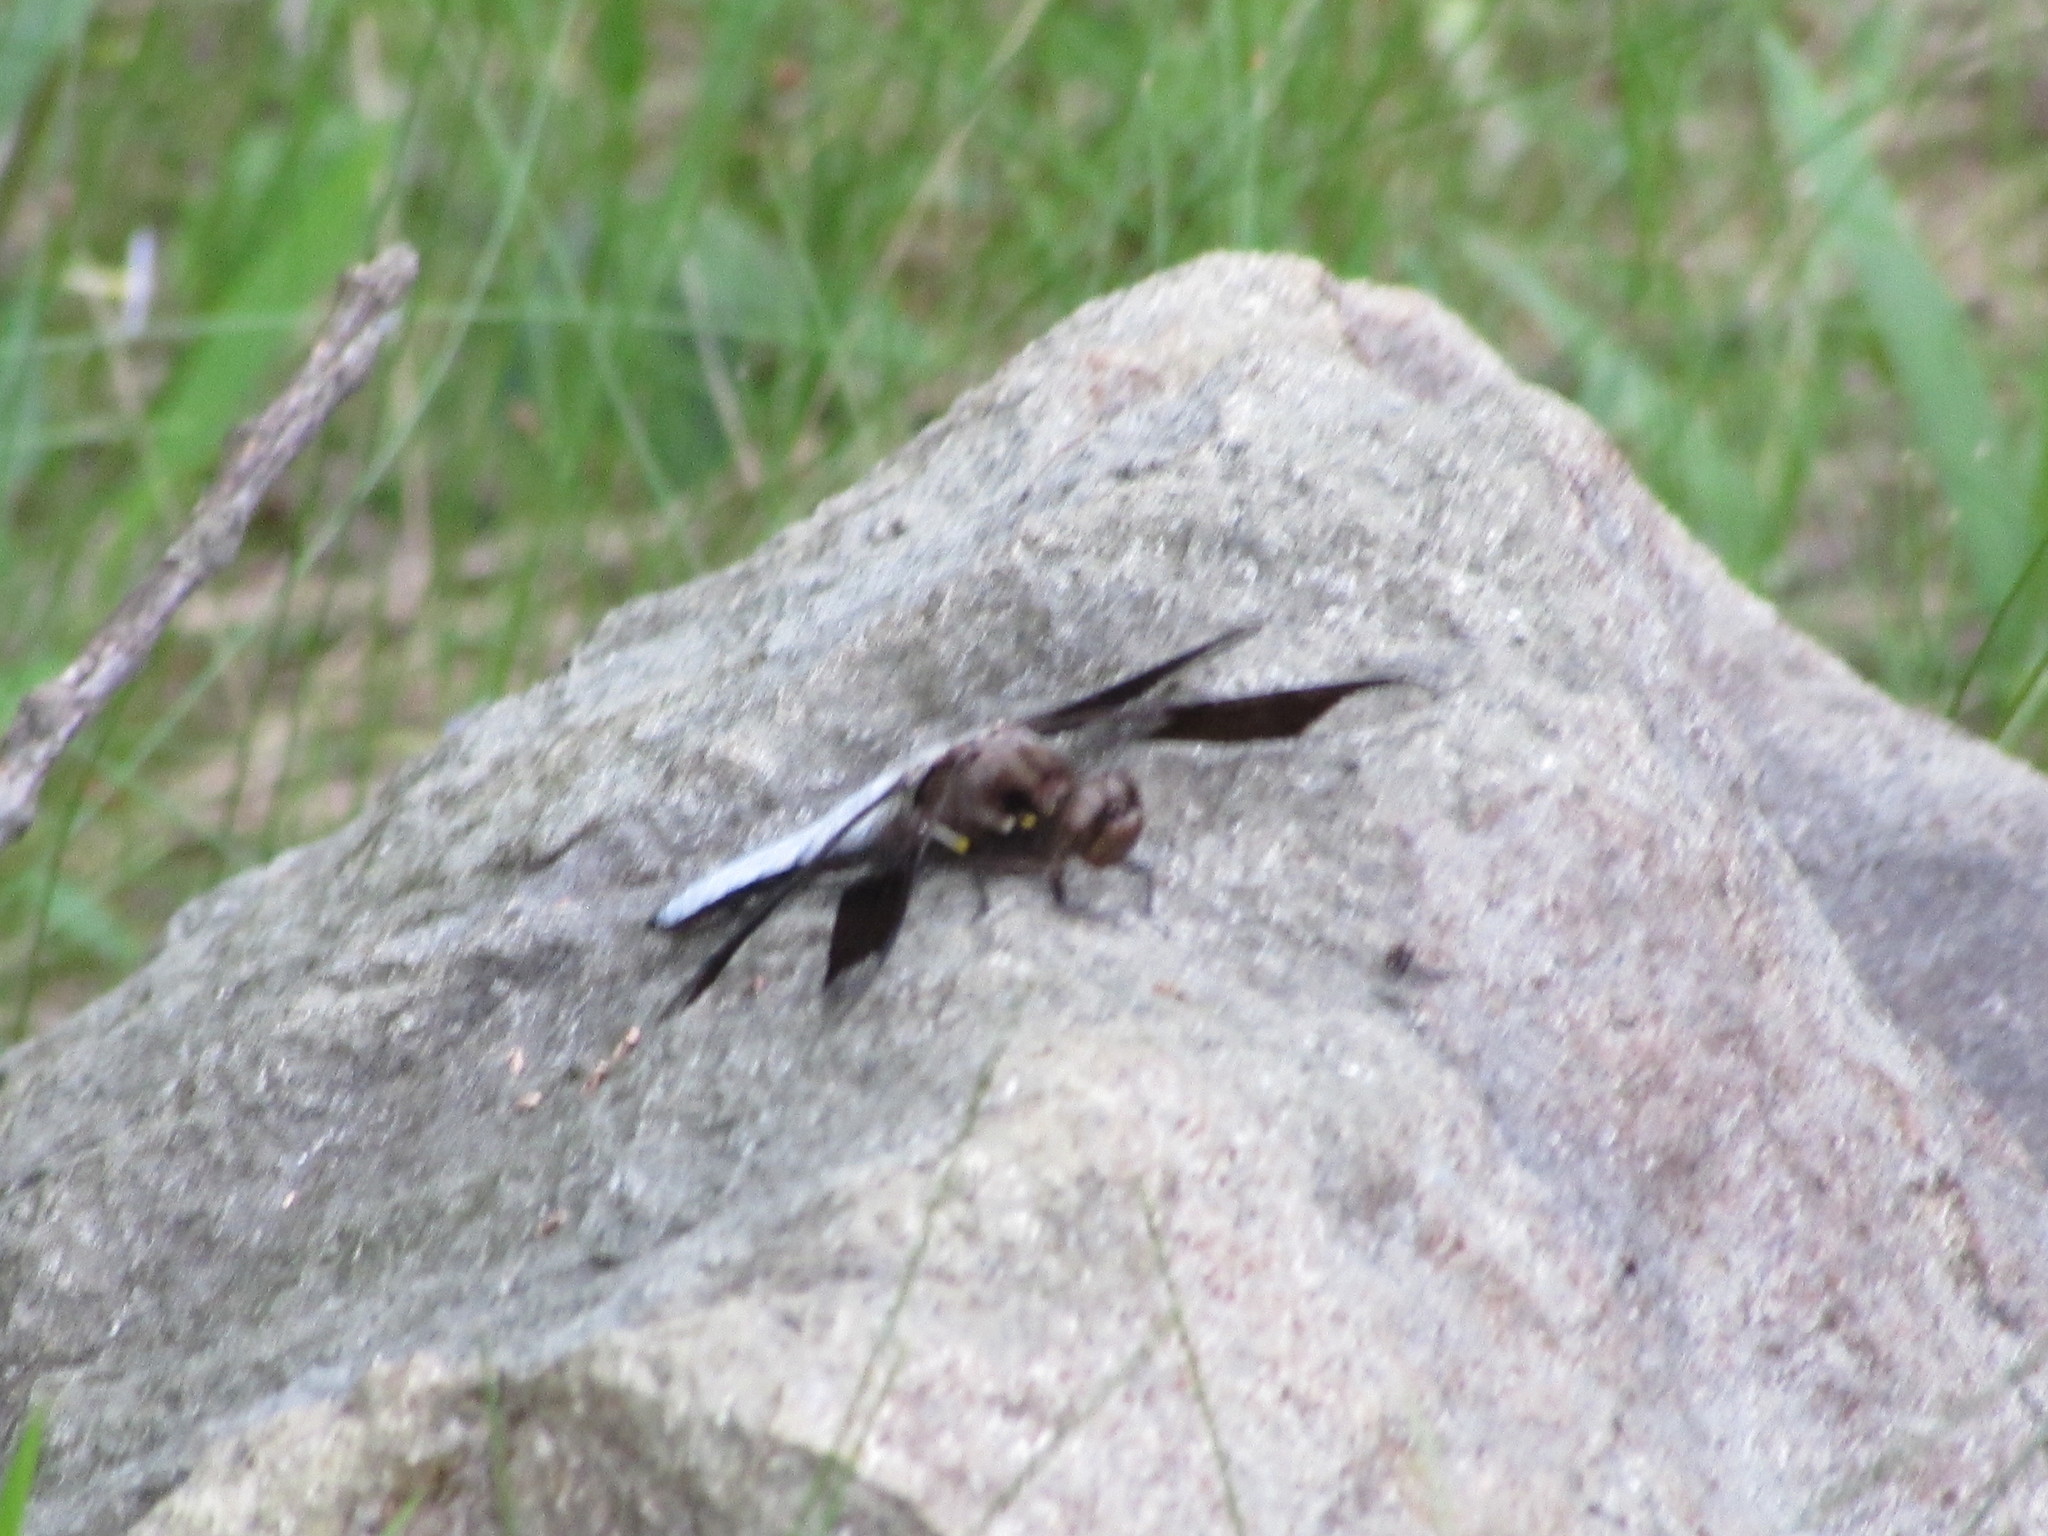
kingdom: Animalia
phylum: Arthropoda
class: Insecta
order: Odonata
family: Libellulidae
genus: Plathemis
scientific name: Plathemis lydia
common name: Common whitetail
